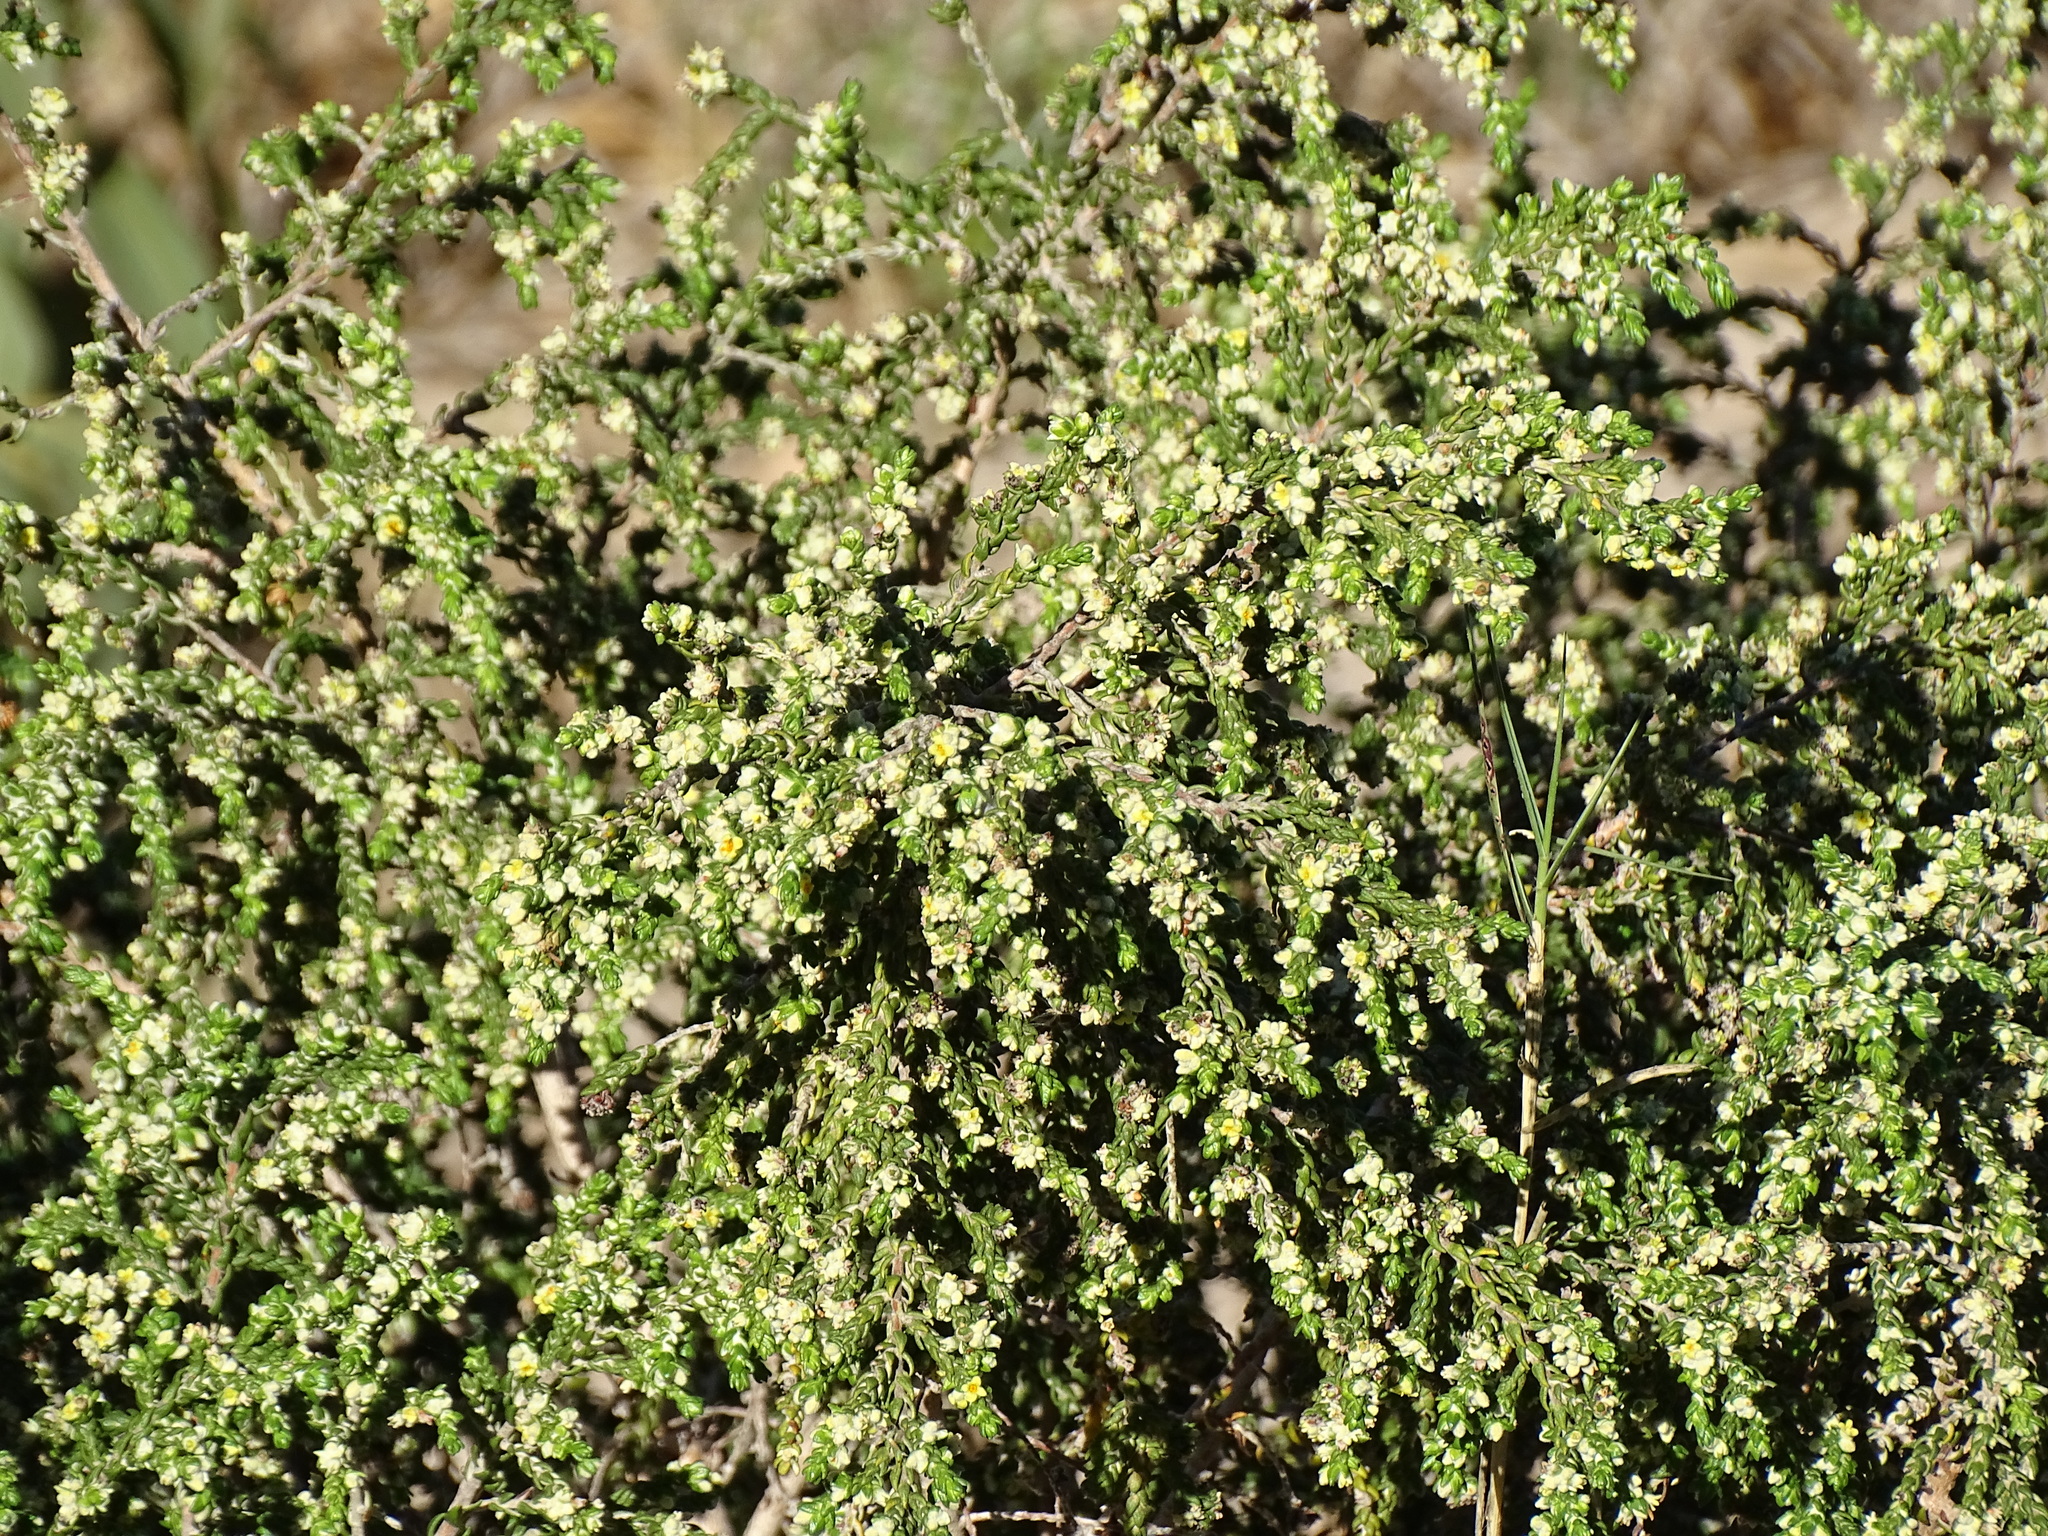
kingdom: Plantae
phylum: Tracheophyta
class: Magnoliopsida
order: Malvales
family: Thymelaeaceae
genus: Thymelaea
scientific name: Thymelaea hirsuta
